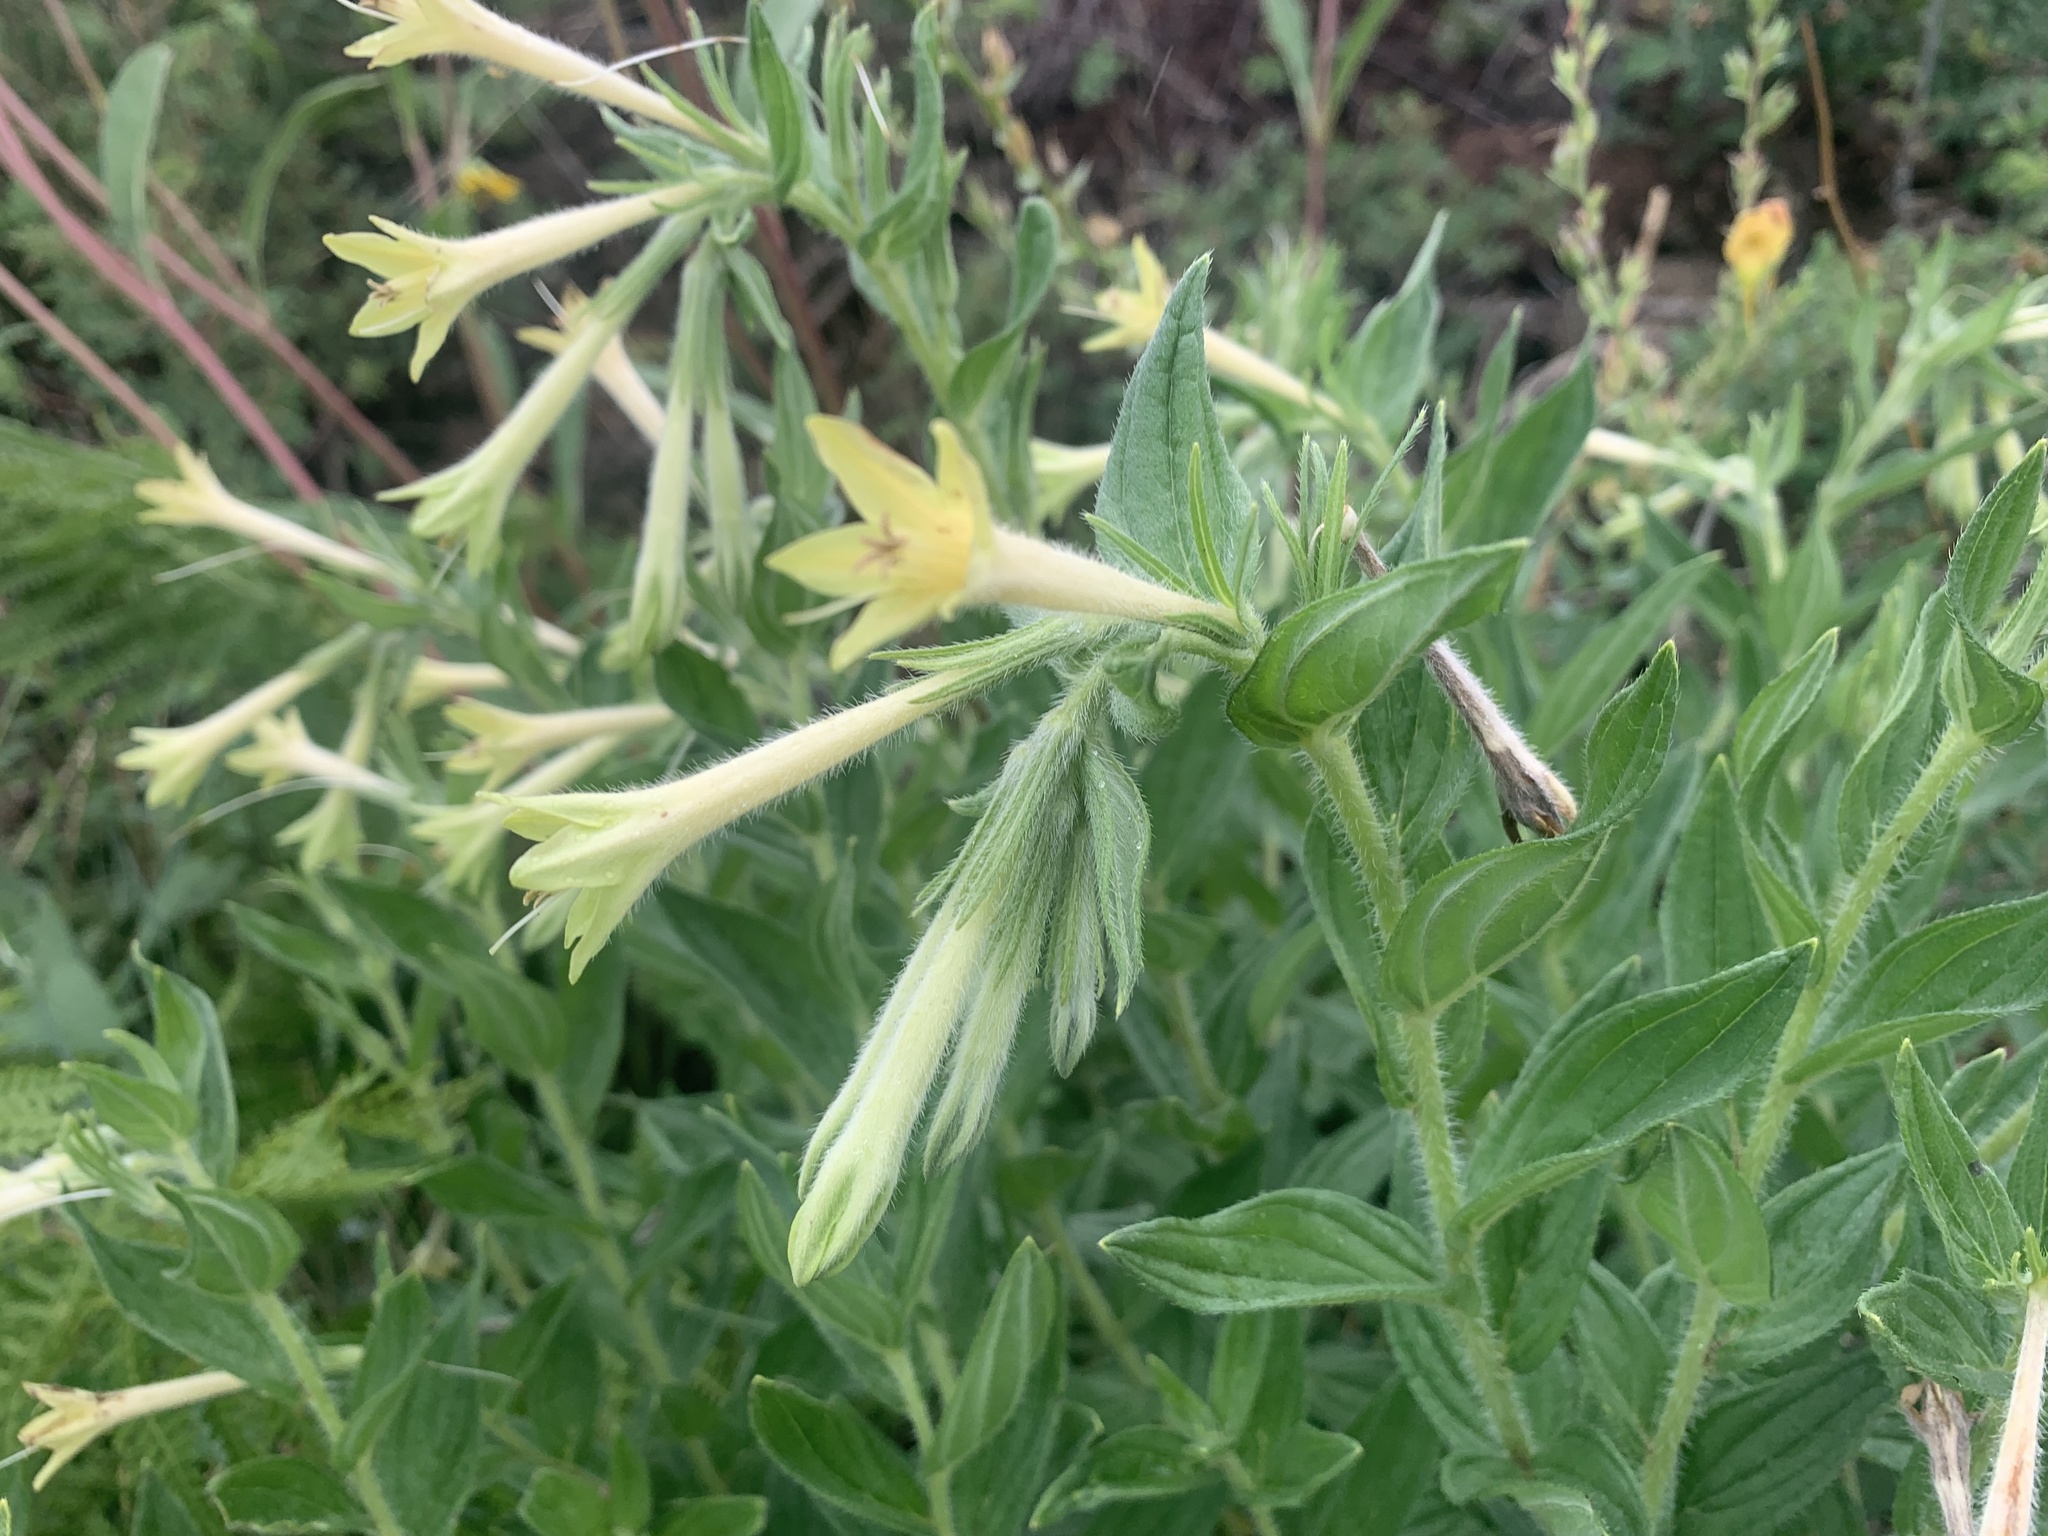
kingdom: Plantae
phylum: Tracheophyta
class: Magnoliopsida
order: Boraginales
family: Boraginaceae
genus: Lithospermum
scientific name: Lithospermum thurberi
